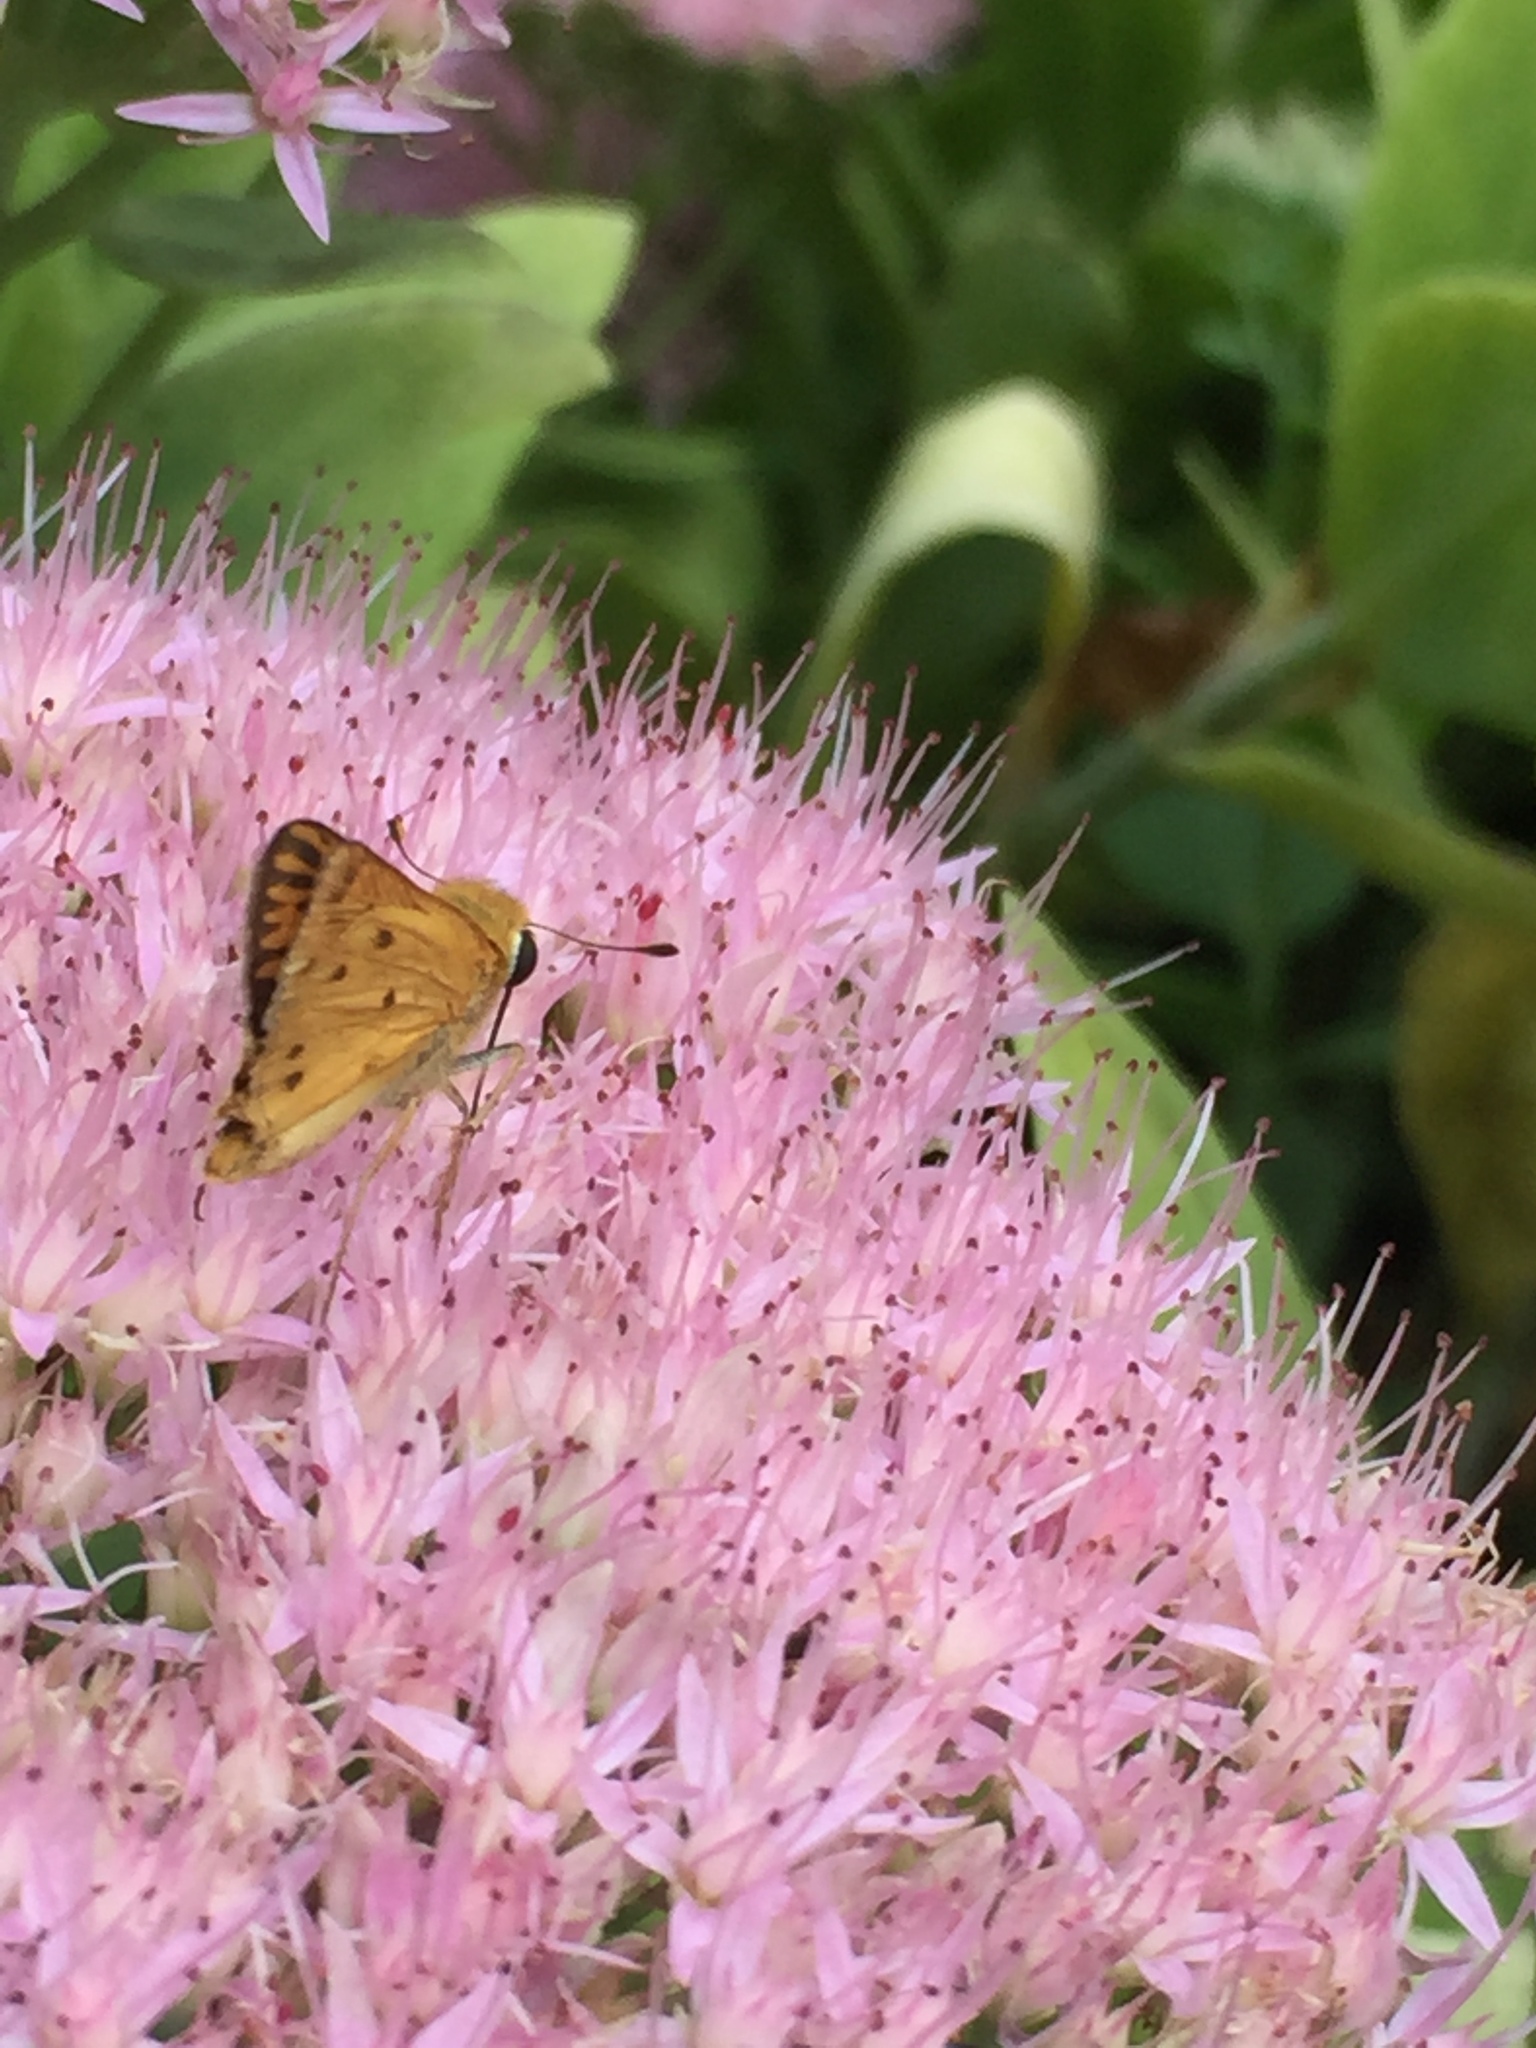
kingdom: Animalia
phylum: Arthropoda
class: Insecta
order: Lepidoptera
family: Hesperiidae
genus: Hylephila
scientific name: Hylephila phyleus
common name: Fiery skipper
